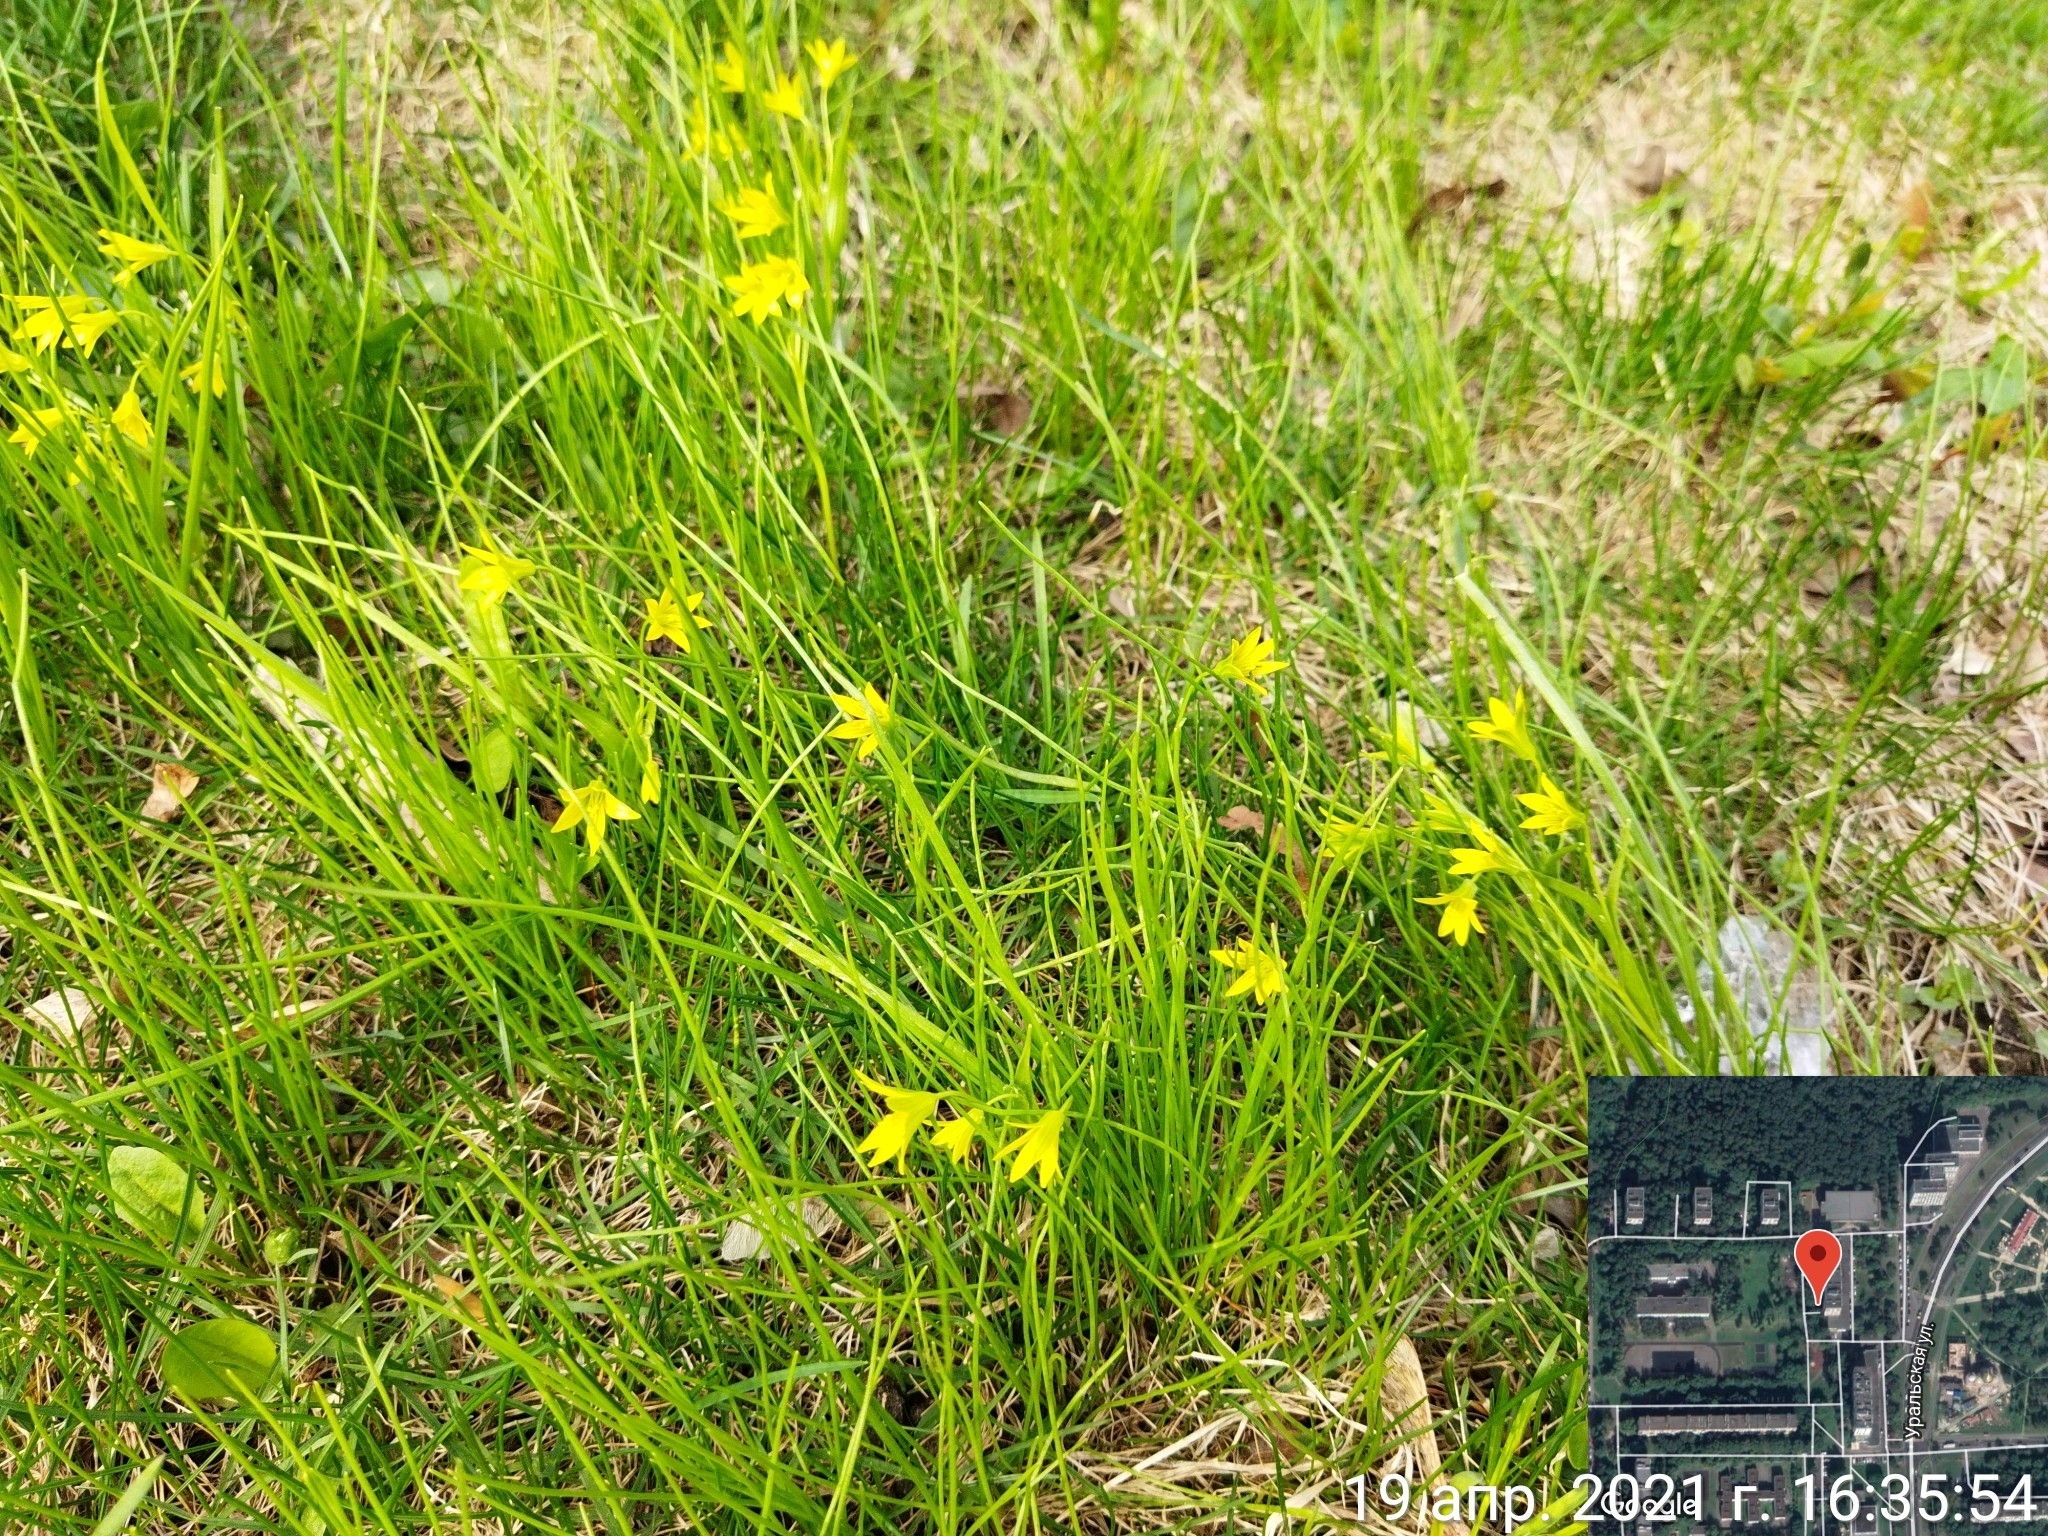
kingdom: Plantae
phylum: Tracheophyta
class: Liliopsida
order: Liliales
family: Liliaceae
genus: Gagea
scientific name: Gagea minima
